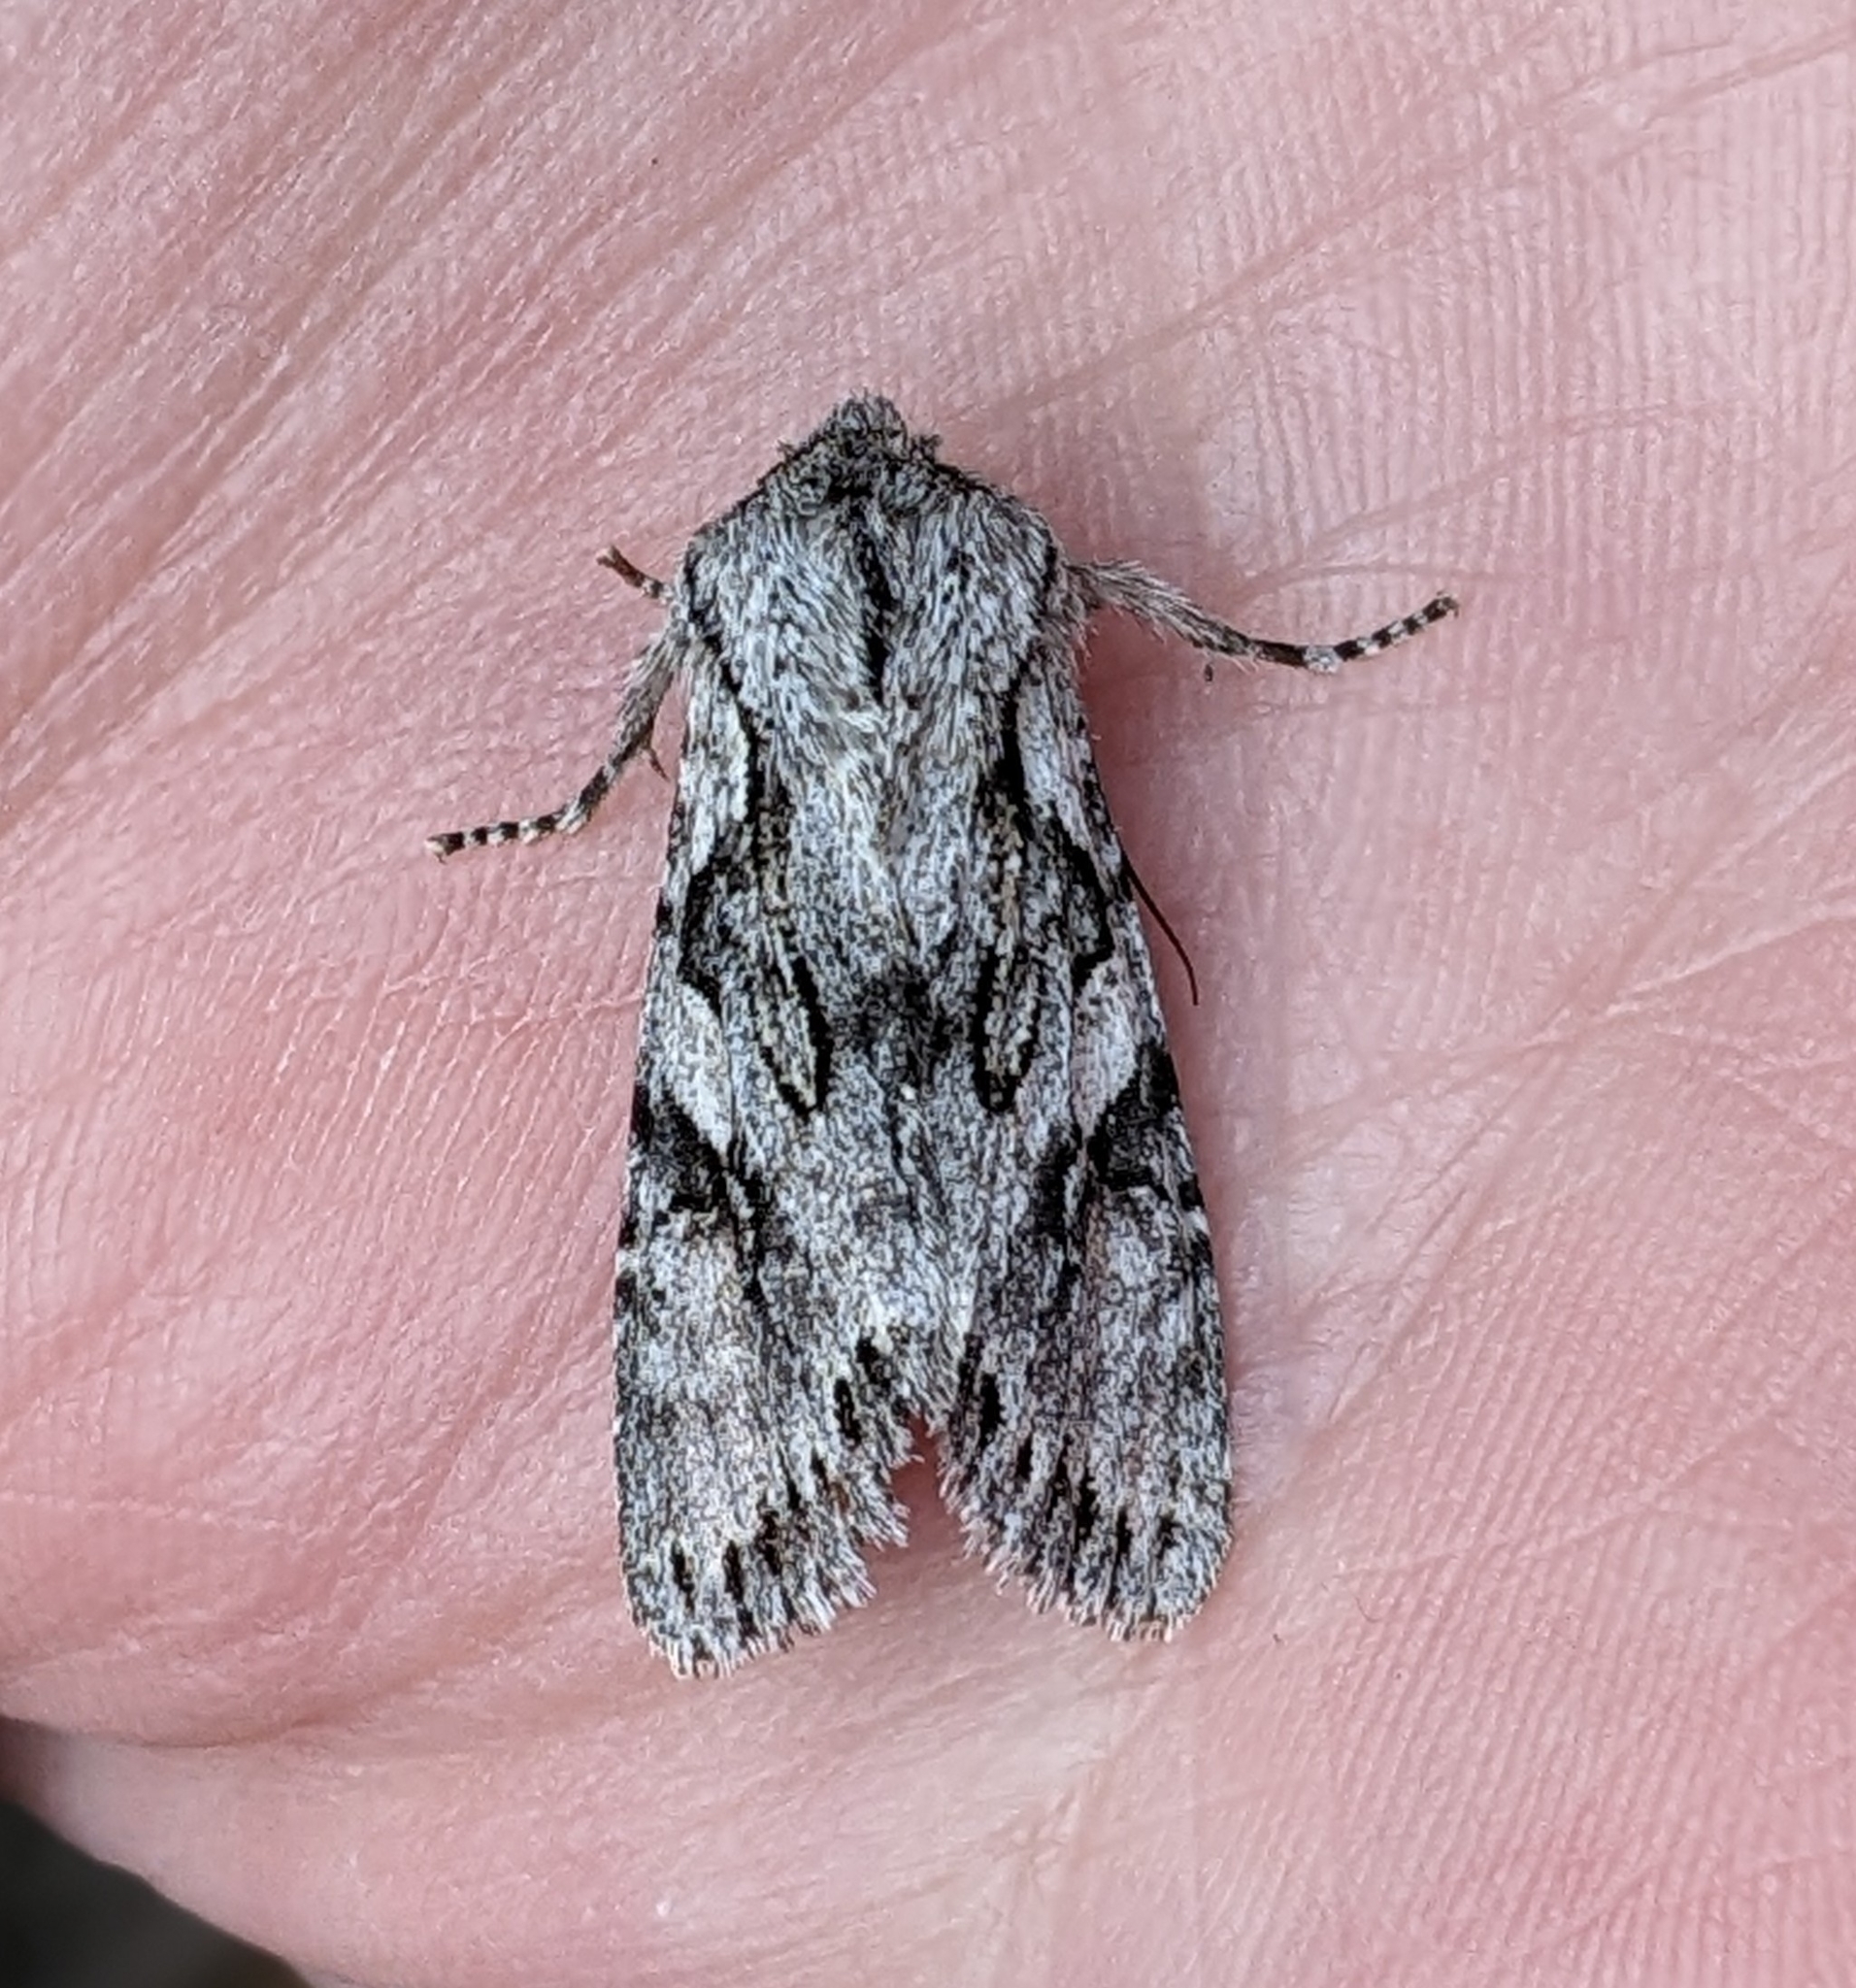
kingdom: Animalia
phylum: Arthropoda
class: Insecta
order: Lepidoptera
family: Noctuidae
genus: Egira
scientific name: Egira simplex
